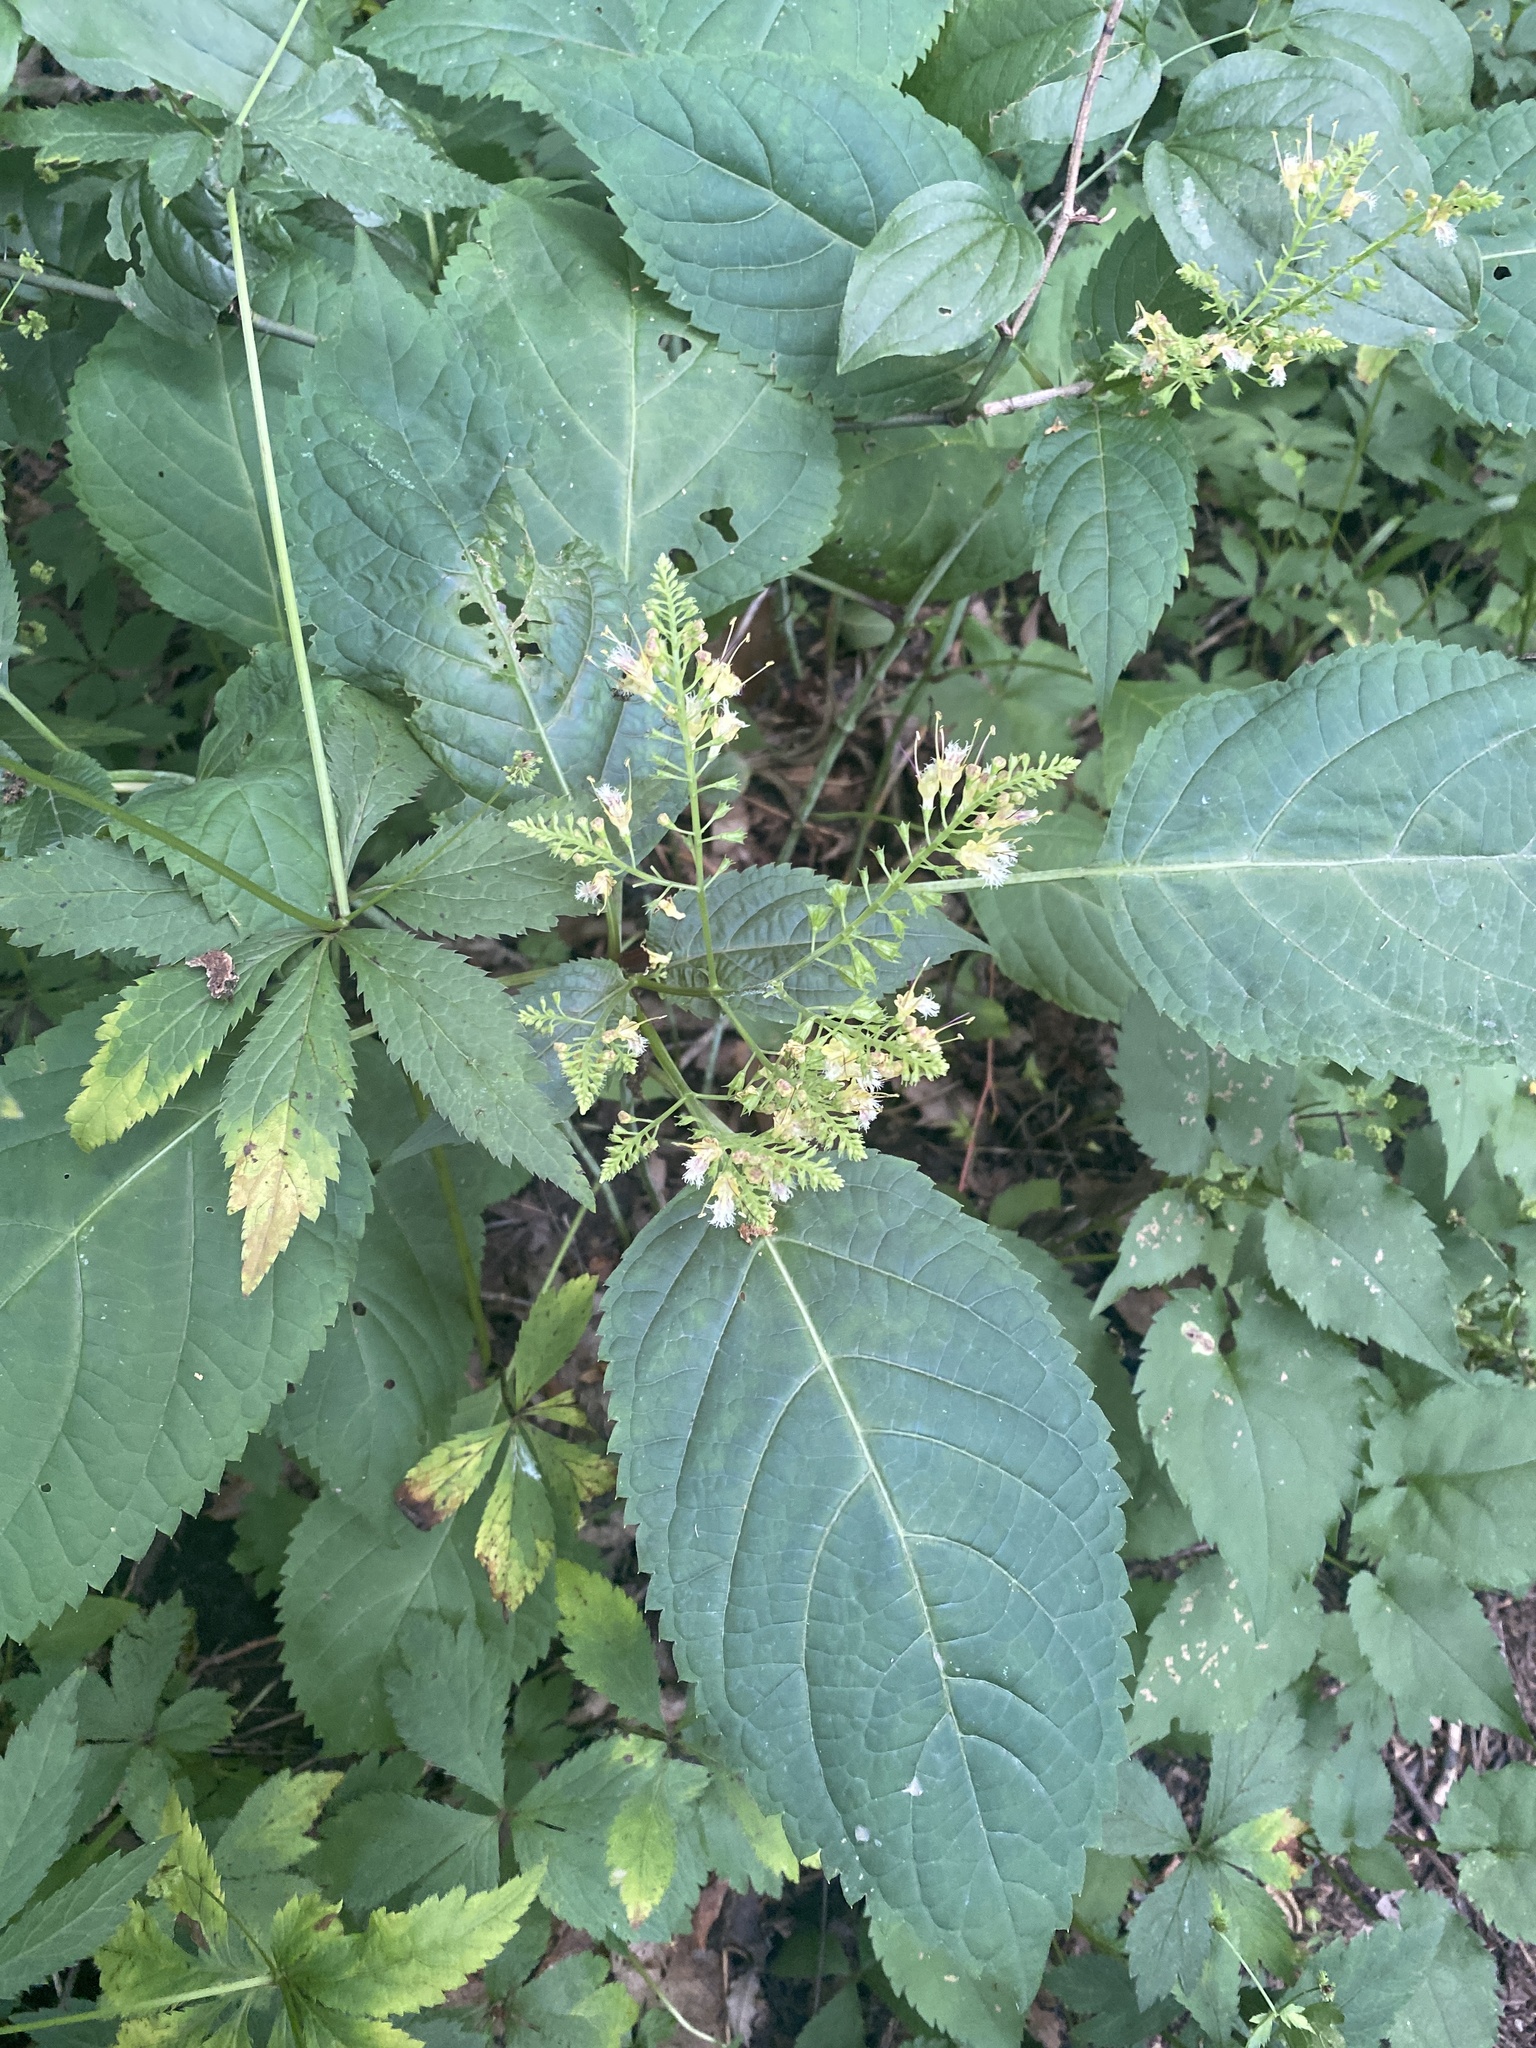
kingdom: Plantae
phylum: Tracheophyta
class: Magnoliopsida
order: Lamiales
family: Lamiaceae
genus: Collinsonia
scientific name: Collinsonia canadensis
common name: Northern horsebalm
